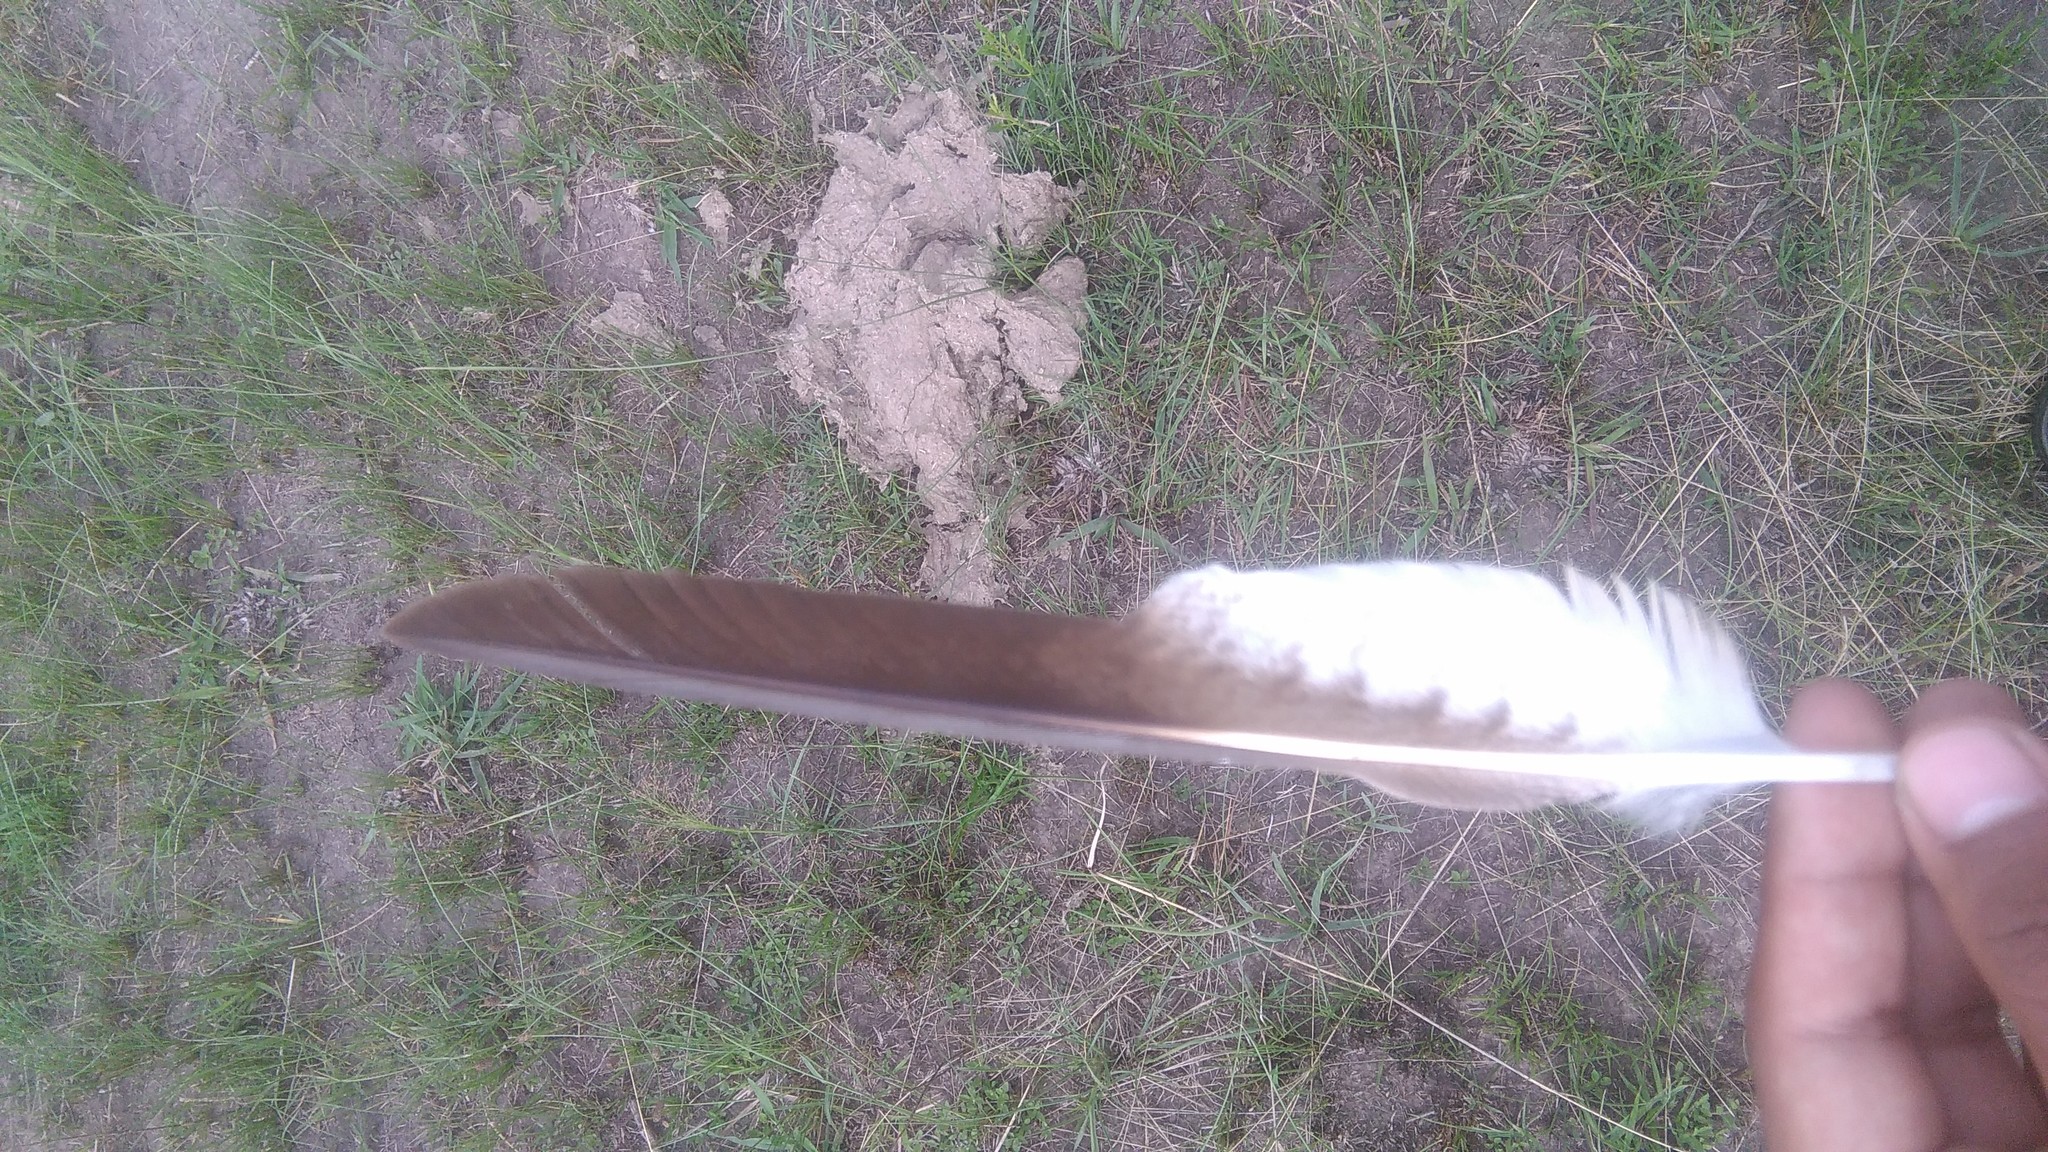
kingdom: Animalia
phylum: Chordata
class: Aves
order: Falconiformes
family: Falconidae
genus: Daptrius
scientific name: Daptrius
